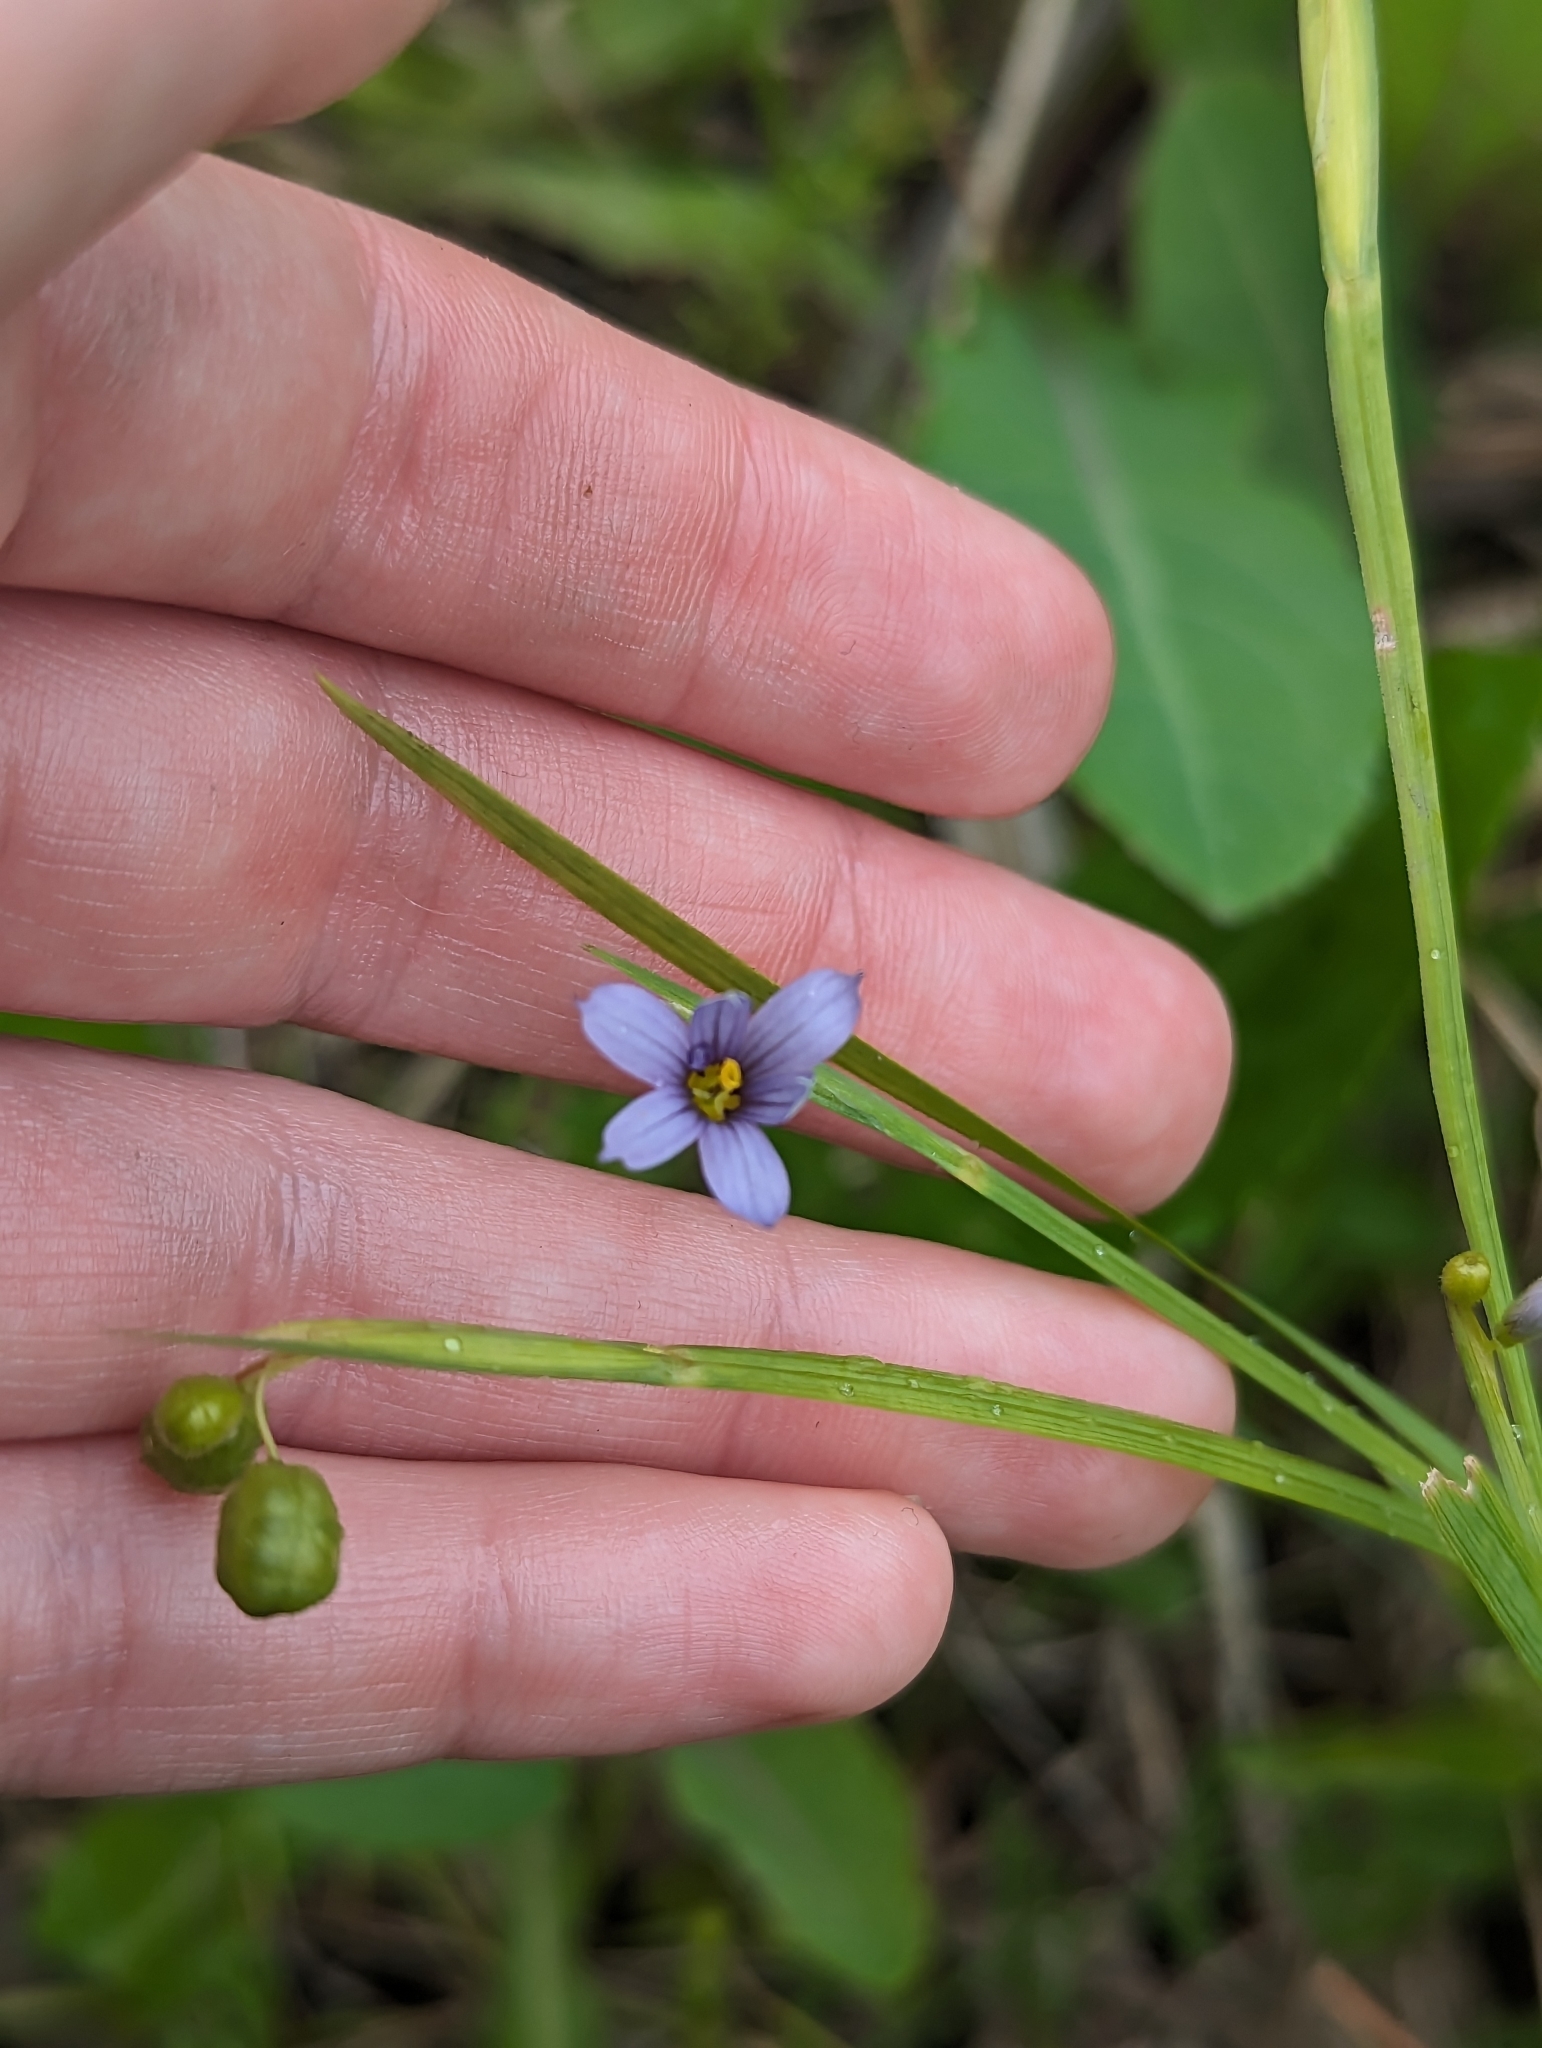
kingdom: Plantae
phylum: Tracheophyta
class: Liliopsida
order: Asparagales
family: Iridaceae
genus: Sisyrinchium
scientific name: Sisyrinchium angustifolium
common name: Narrow-leaf blue-eyed-grass
